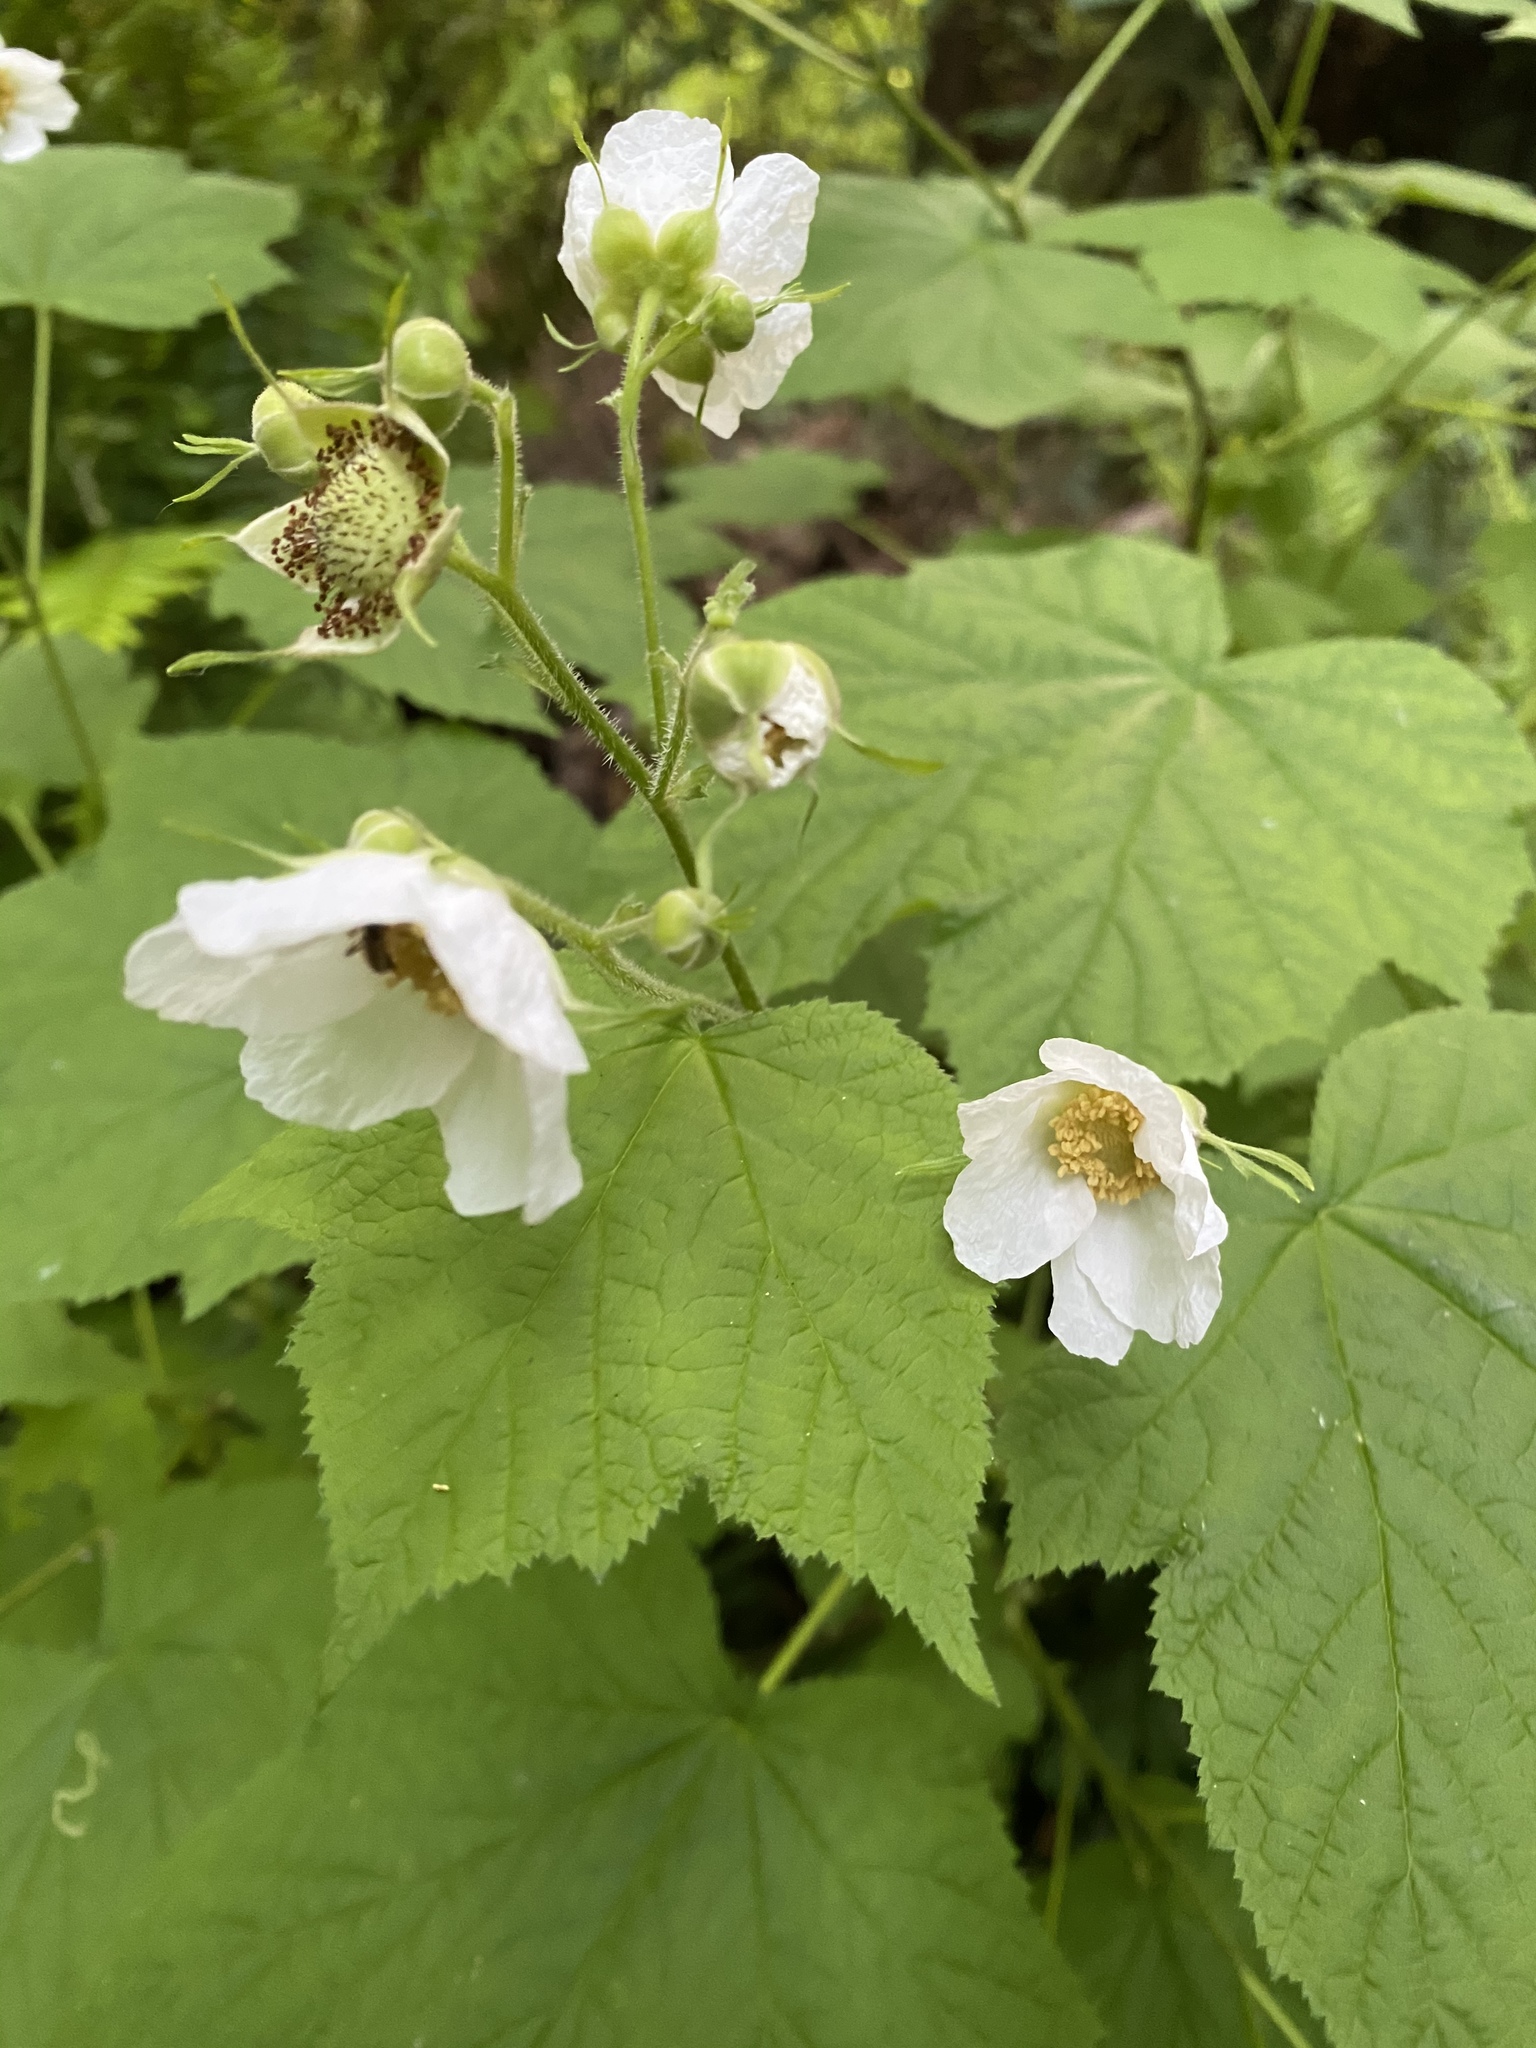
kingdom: Plantae
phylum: Tracheophyta
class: Magnoliopsida
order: Rosales
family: Rosaceae
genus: Rubus
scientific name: Rubus parviflorus
